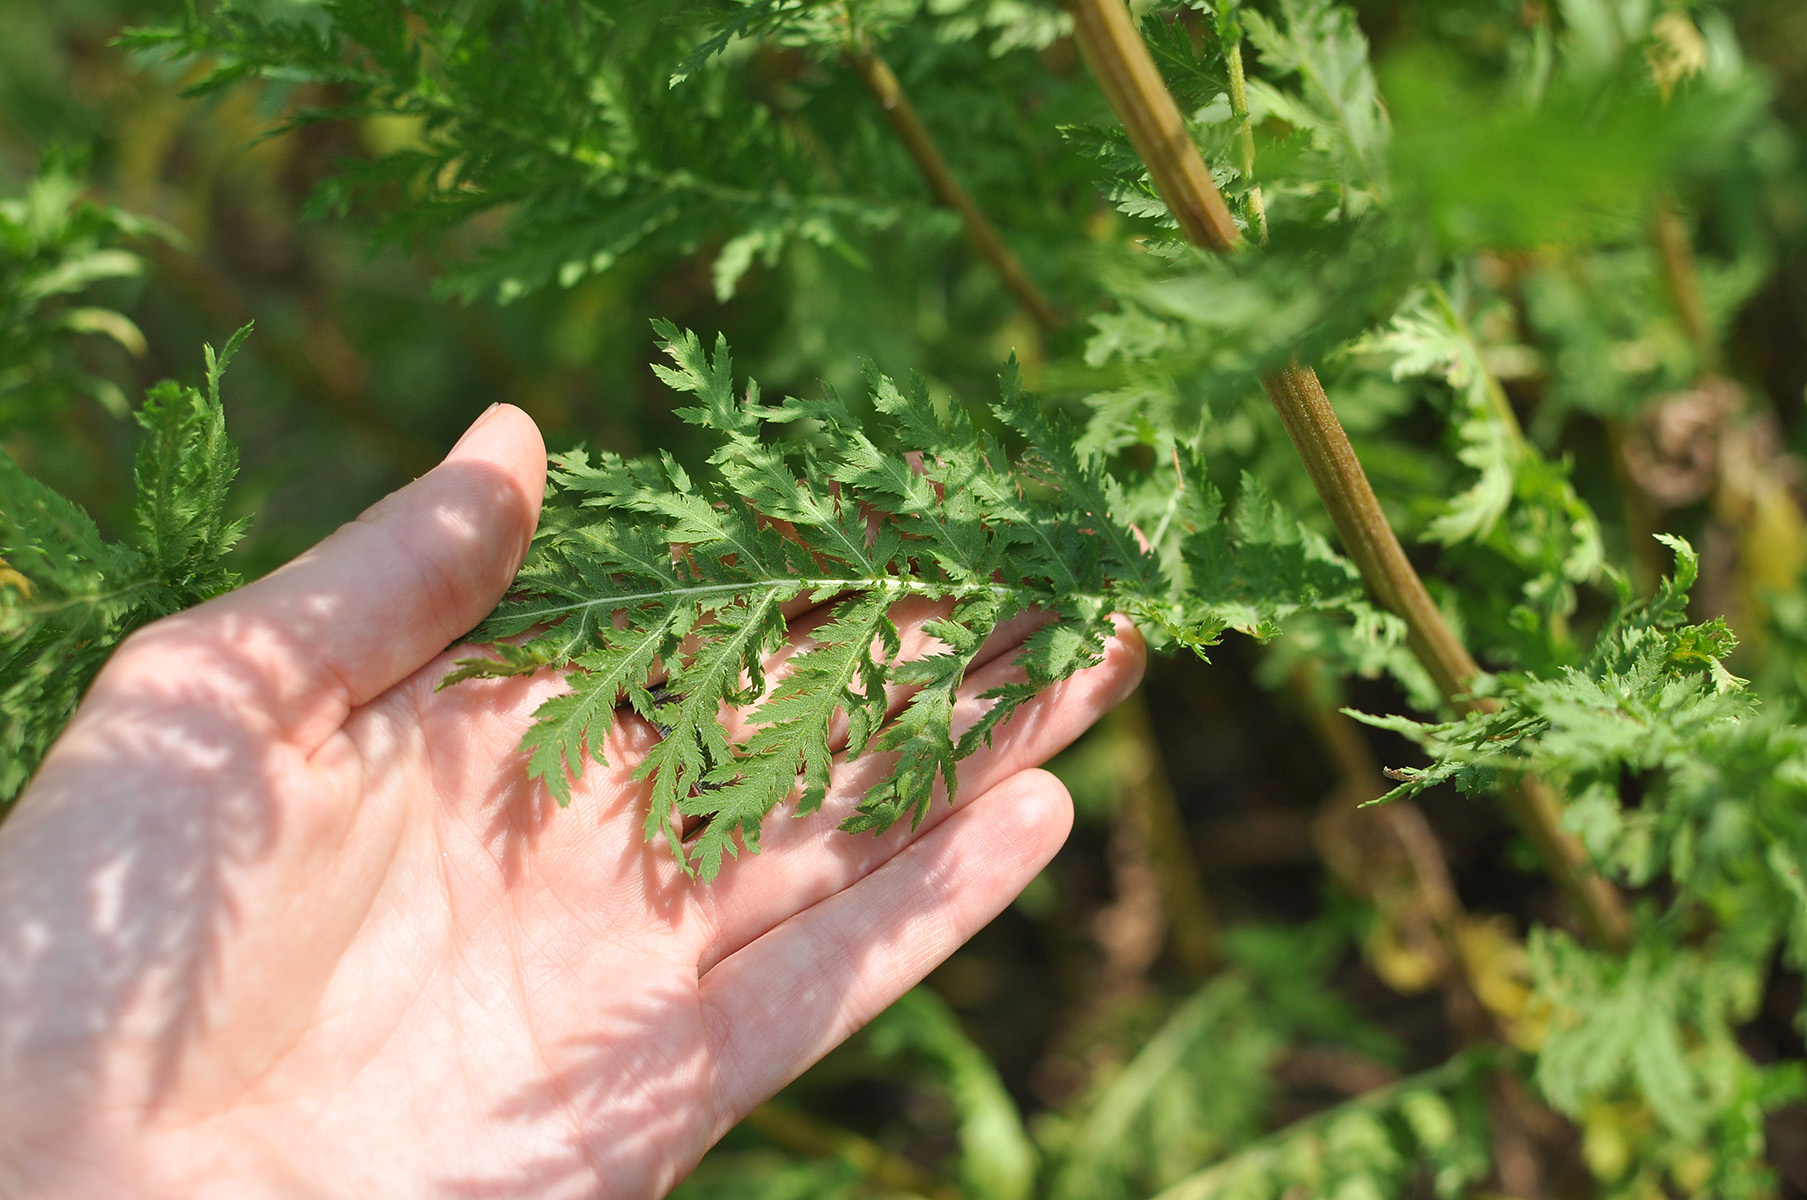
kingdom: Plantae
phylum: Tracheophyta
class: Magnoliopsida
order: Asterales
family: Asteraceae
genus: Tanacetum
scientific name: Tanacetum vulgare
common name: Common tansy
